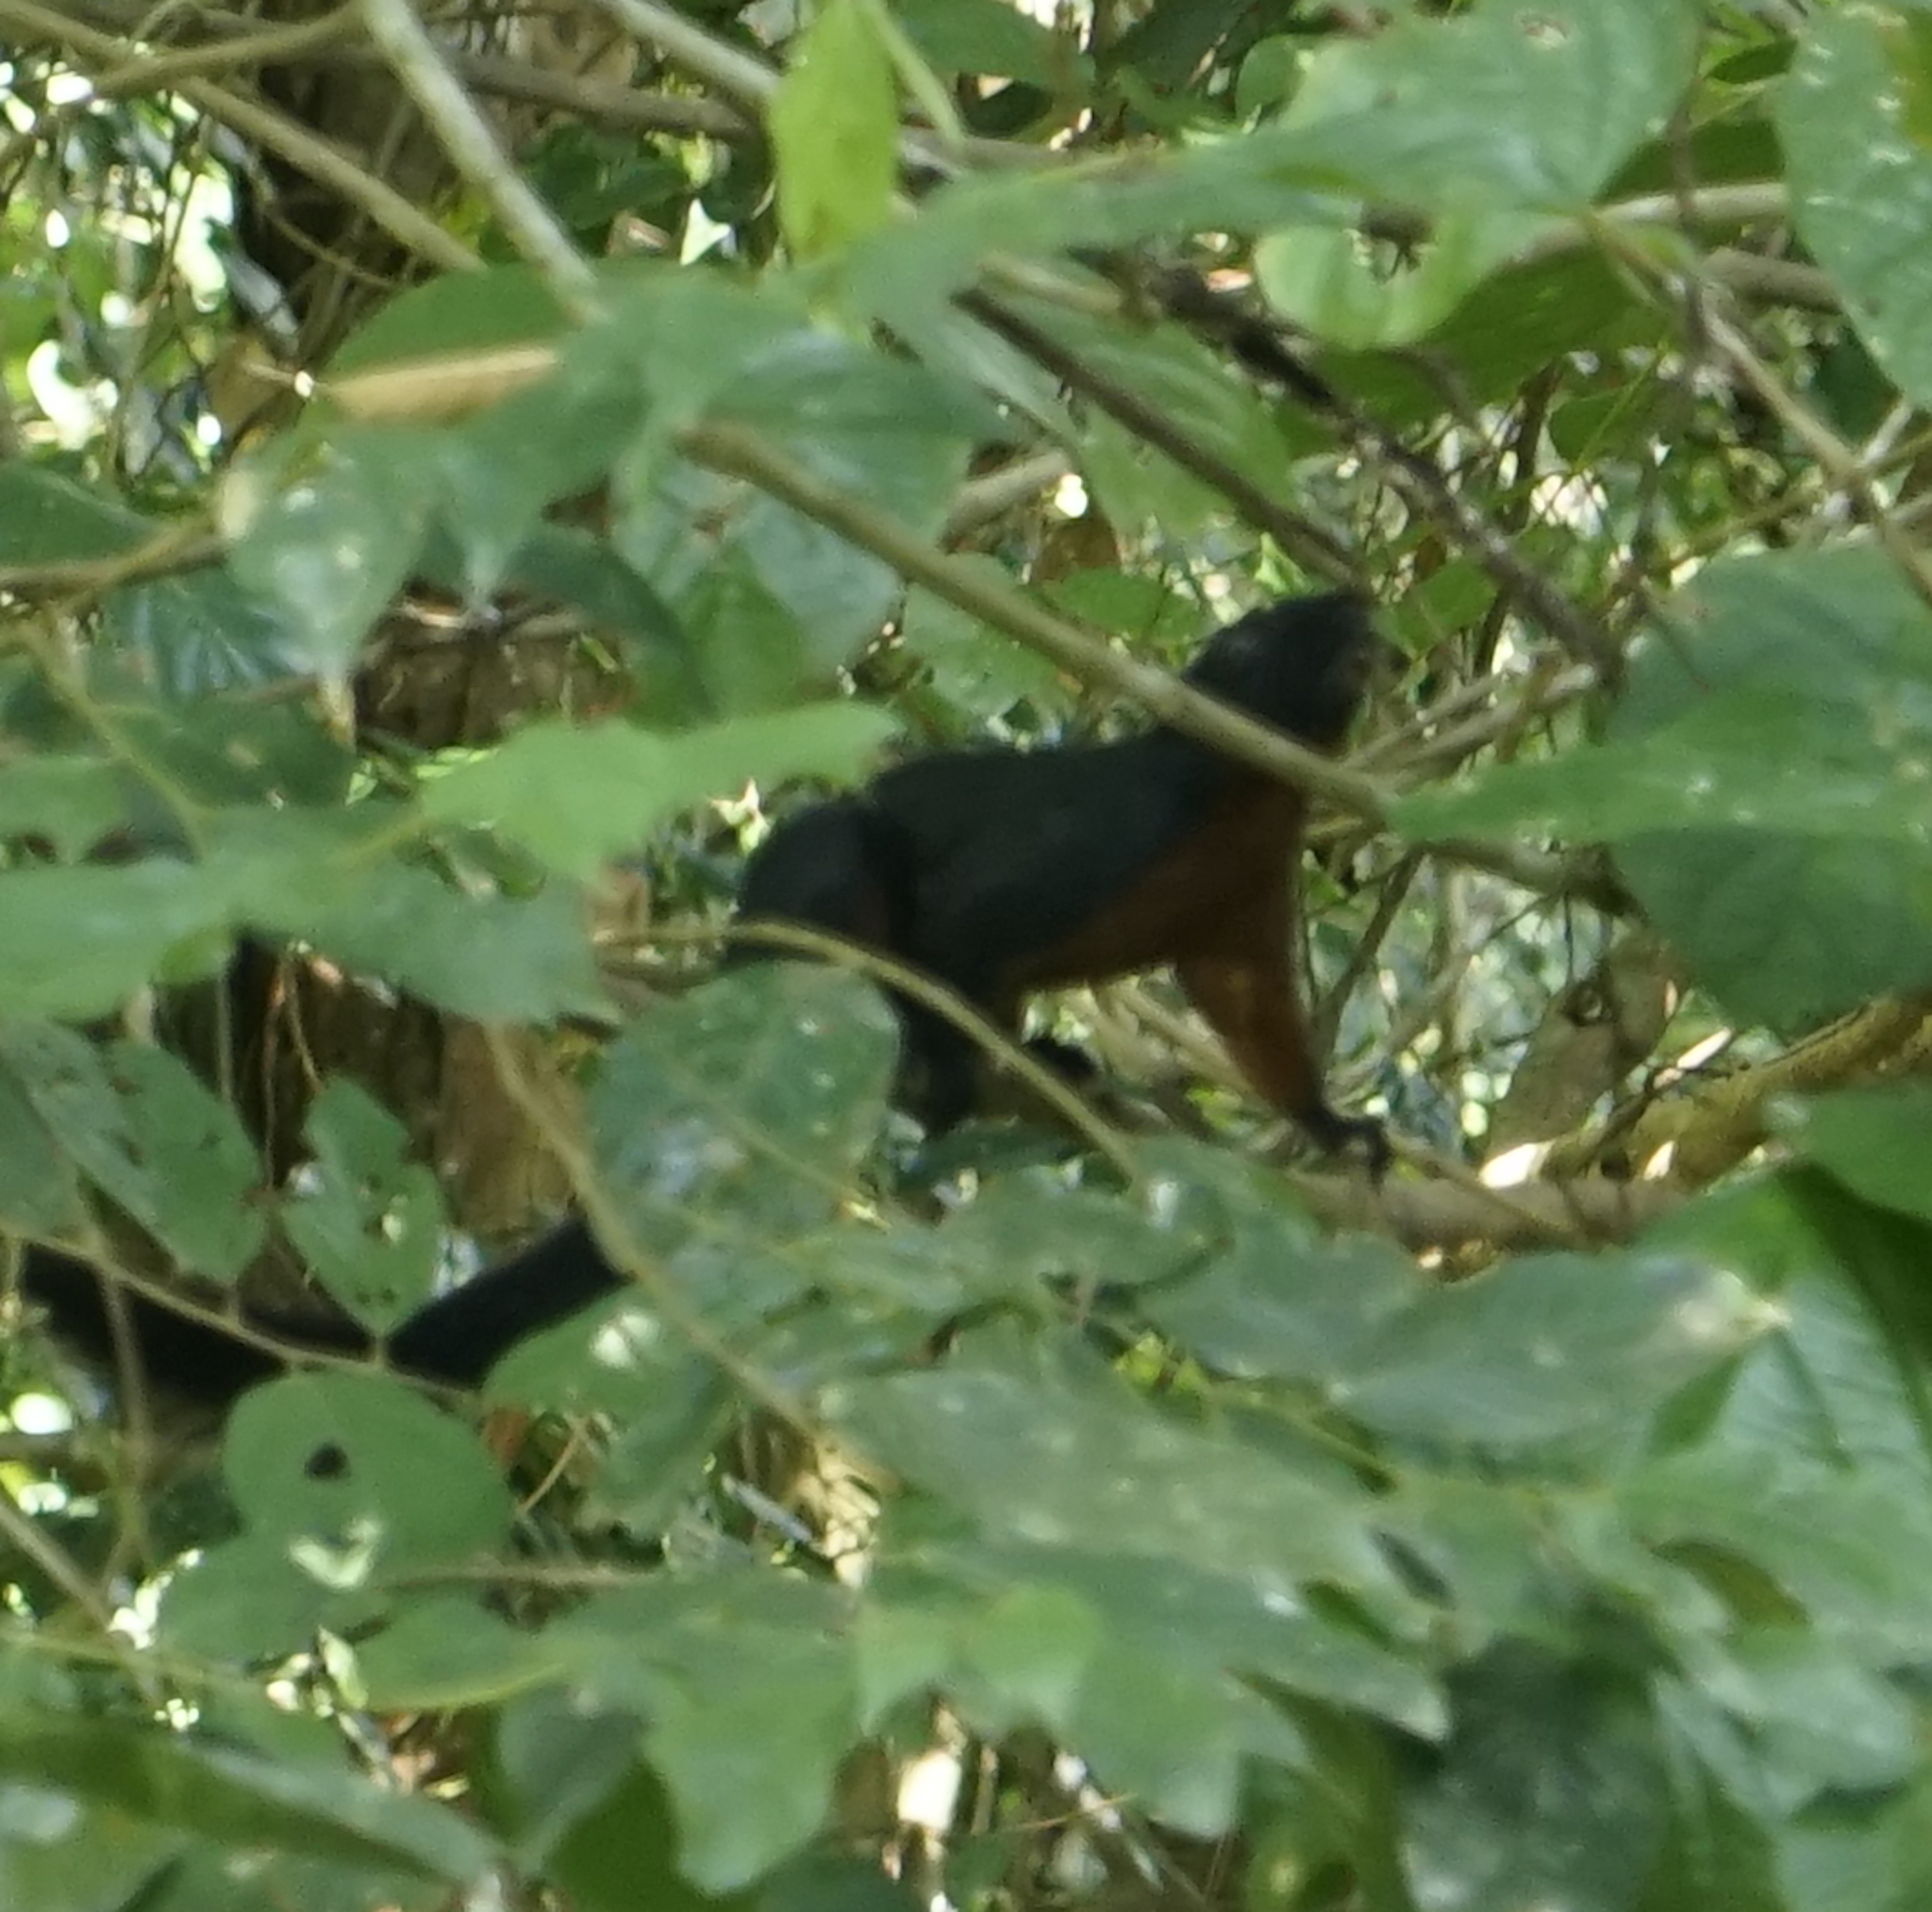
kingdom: Animalia
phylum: Chordata
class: Mammalia
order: Rodentia
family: Sciuridae
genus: Callosciurus
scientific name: Callosciurus prevostii
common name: Prevost's squirrel
